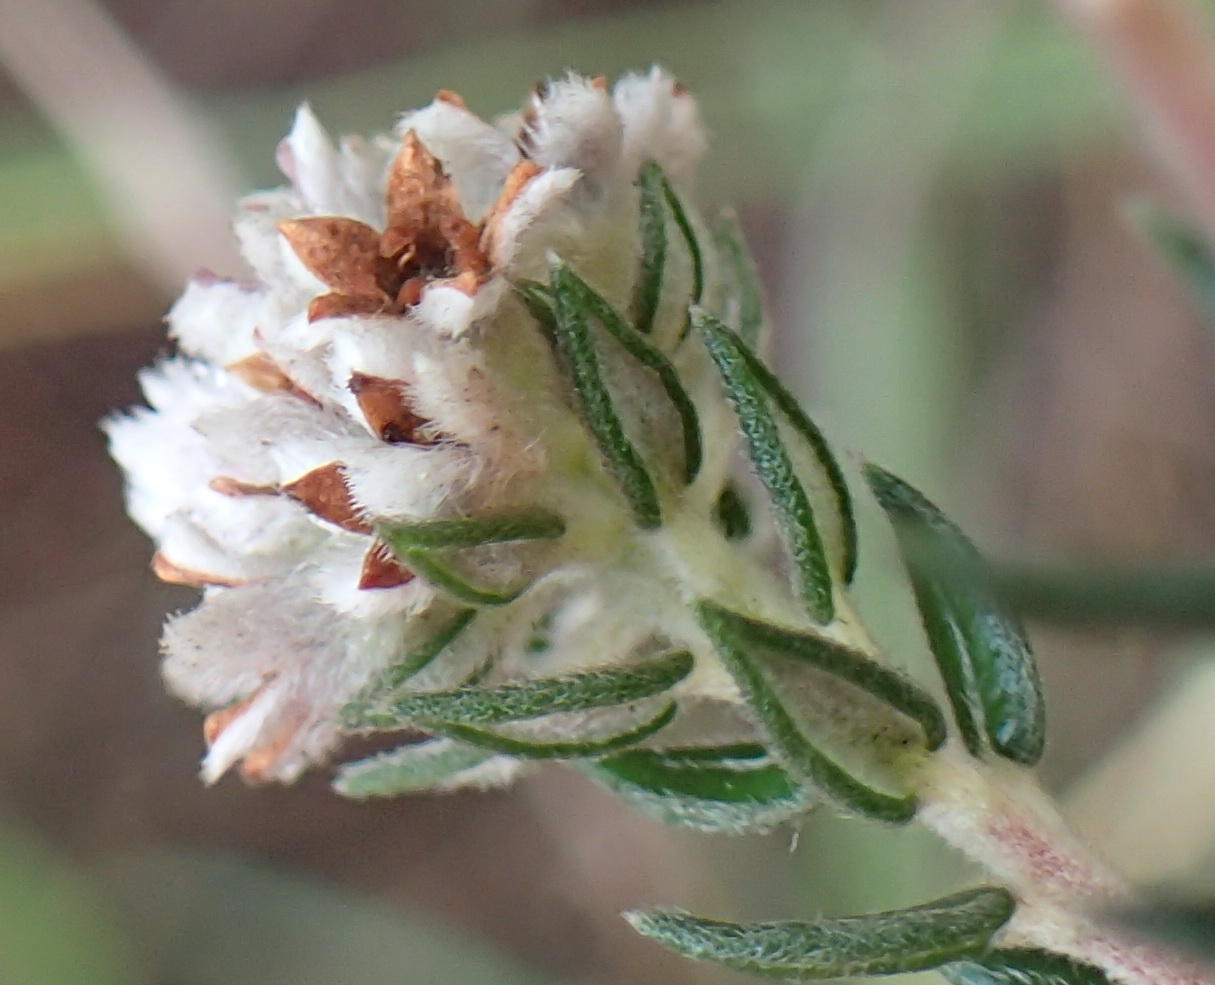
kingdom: Plantae
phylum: Tracheophyta
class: Magnoliopsida
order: Rosales
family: Rhamnaceae
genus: Phylica
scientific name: Phylica purpurea
